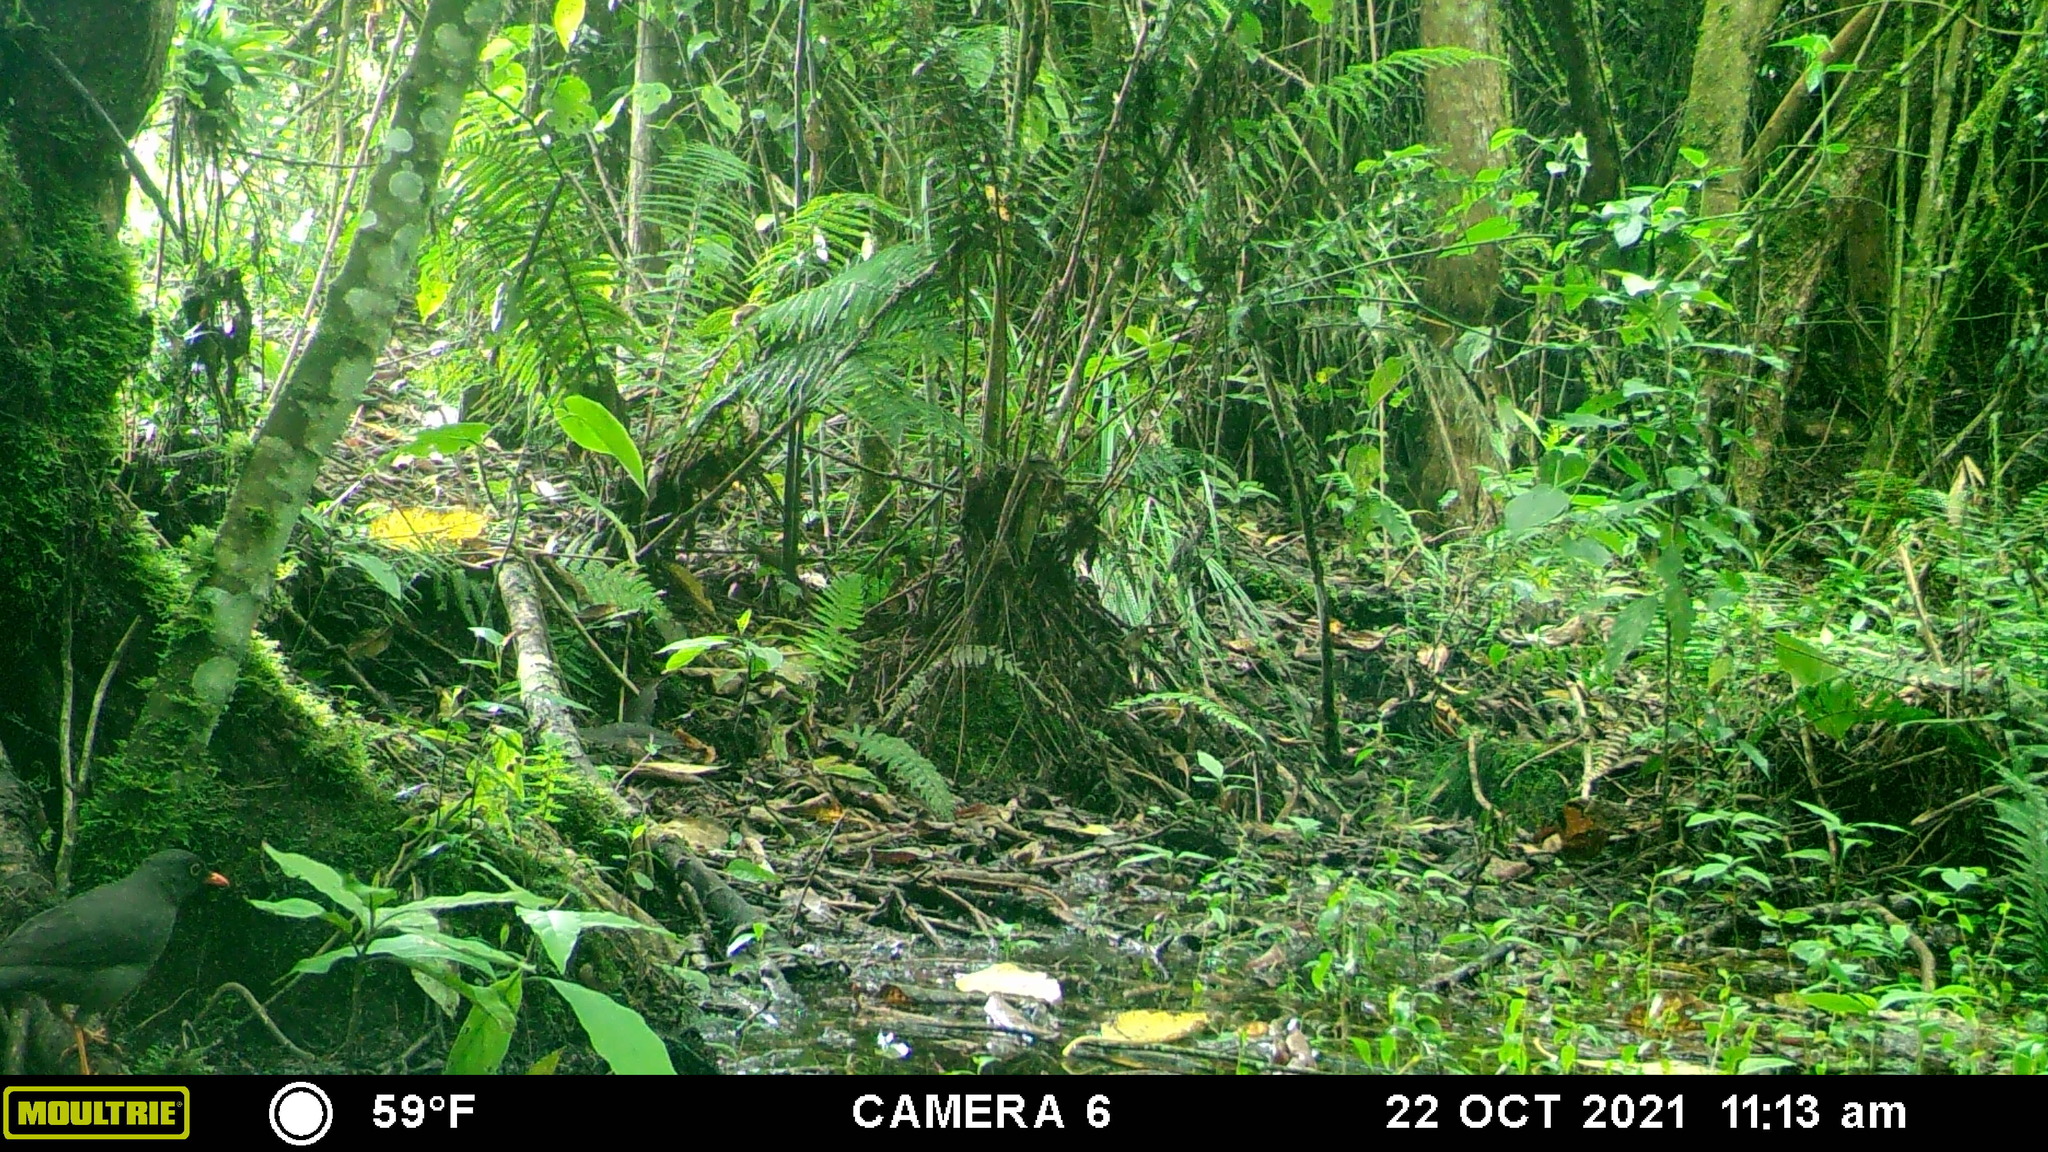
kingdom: Animalia
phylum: Chordata
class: Aves
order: Passeriformes
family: Turdidae
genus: Turdus
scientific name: Turdus fuscater
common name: Great thrush
